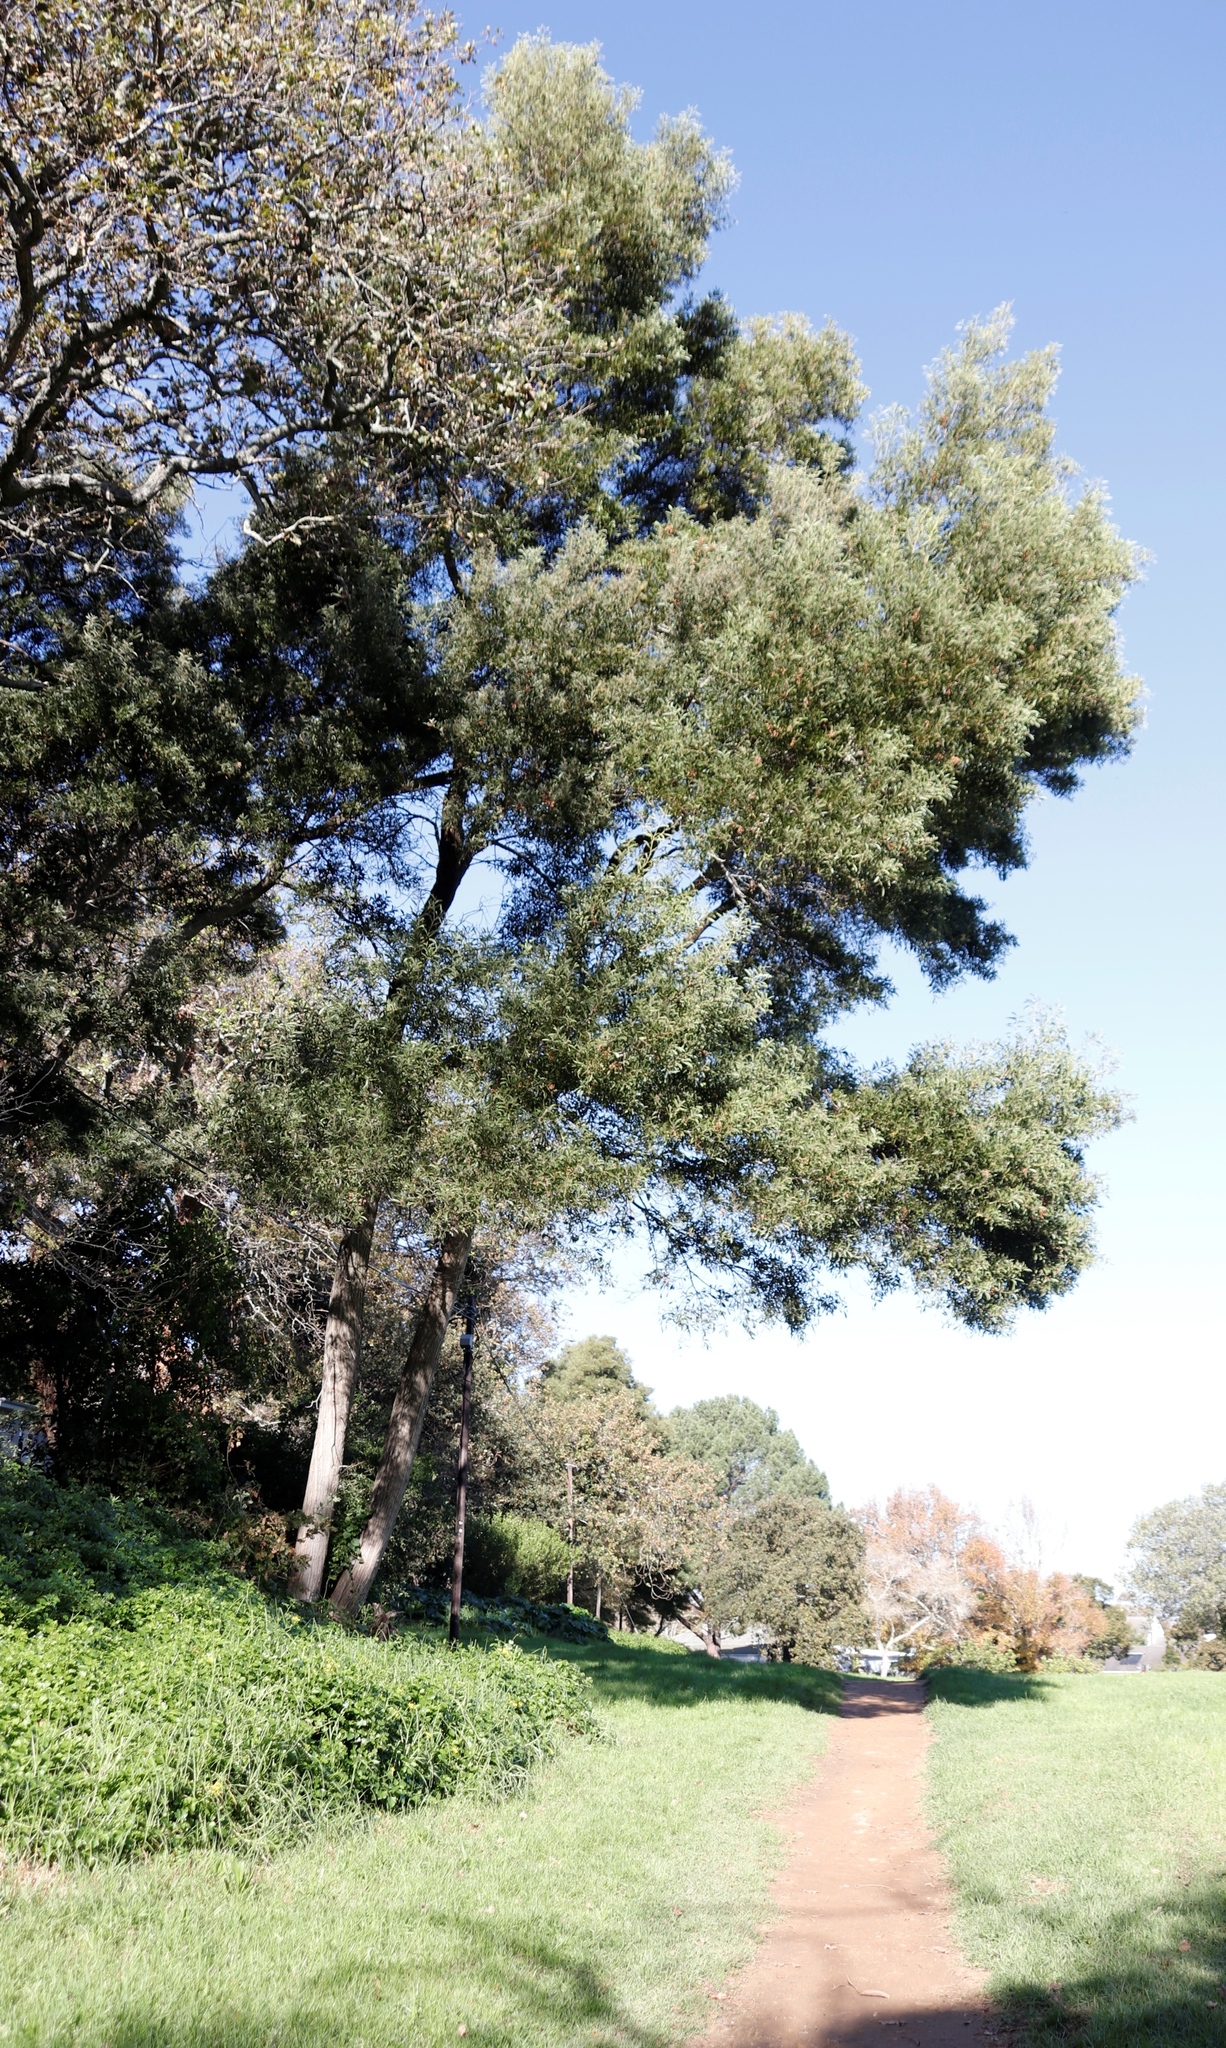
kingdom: Plantae
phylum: Tracheophyta
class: Magnoliopsida
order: Fabales
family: Fabaceae
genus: Acacia
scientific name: Acacia melanoxylon
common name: Blackwood
